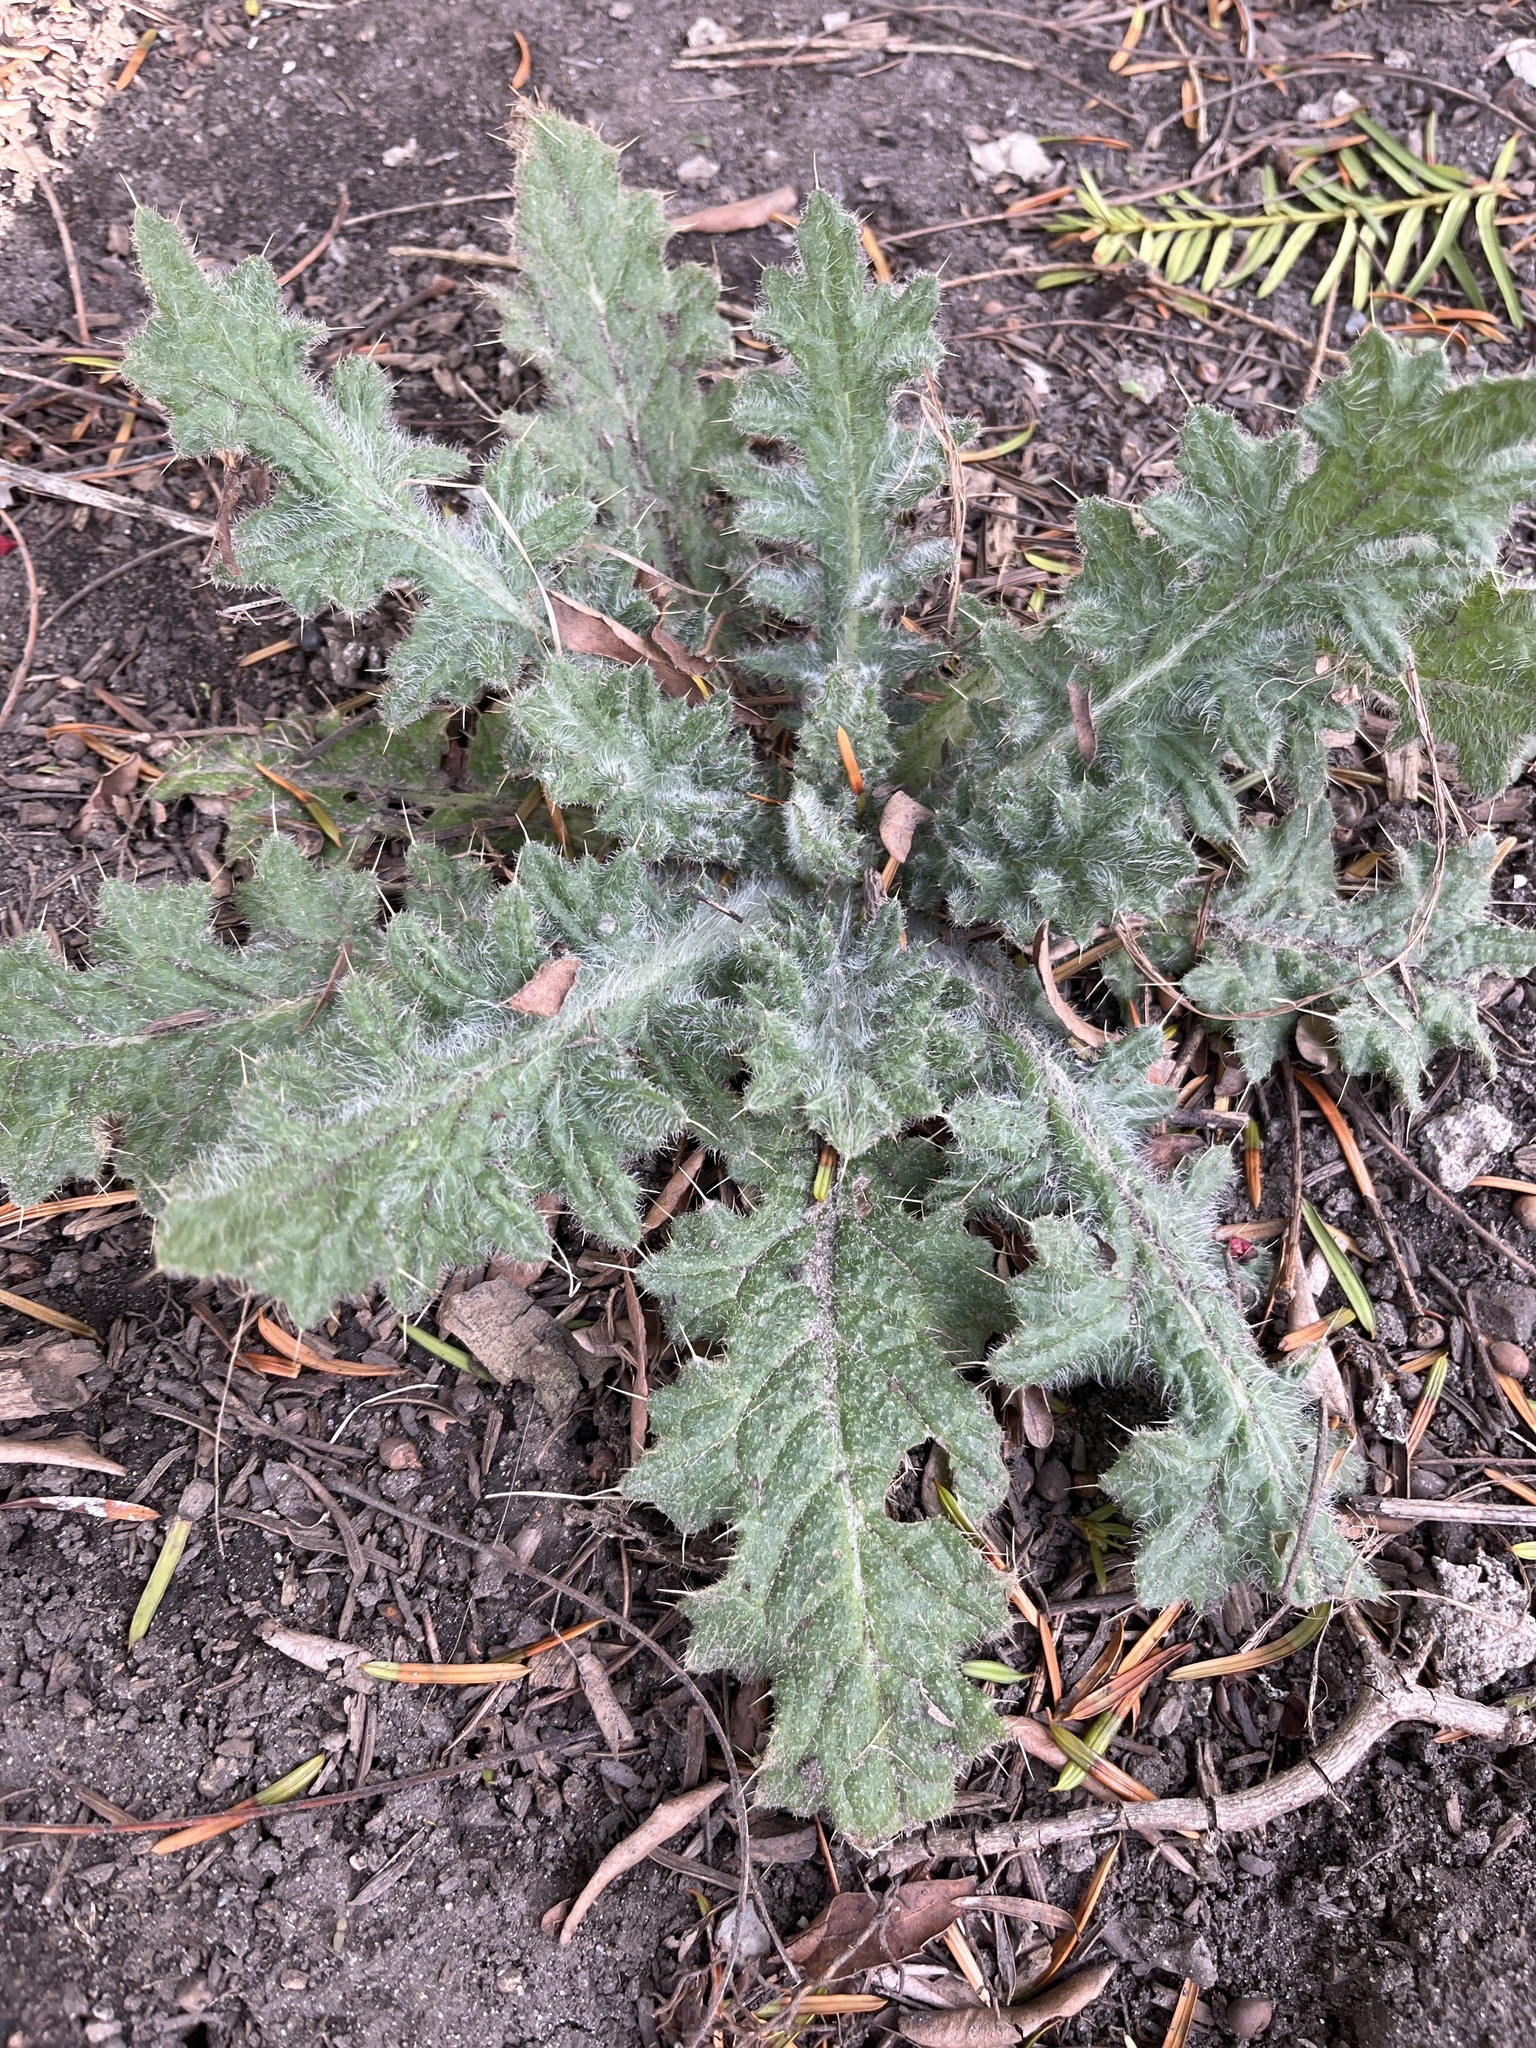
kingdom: Plantae
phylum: Tracheophyta
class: Magnoliopsida
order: Asterales
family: Asteraceae
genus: Cirsium
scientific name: Cirsium vulgare
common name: Bull thistle
